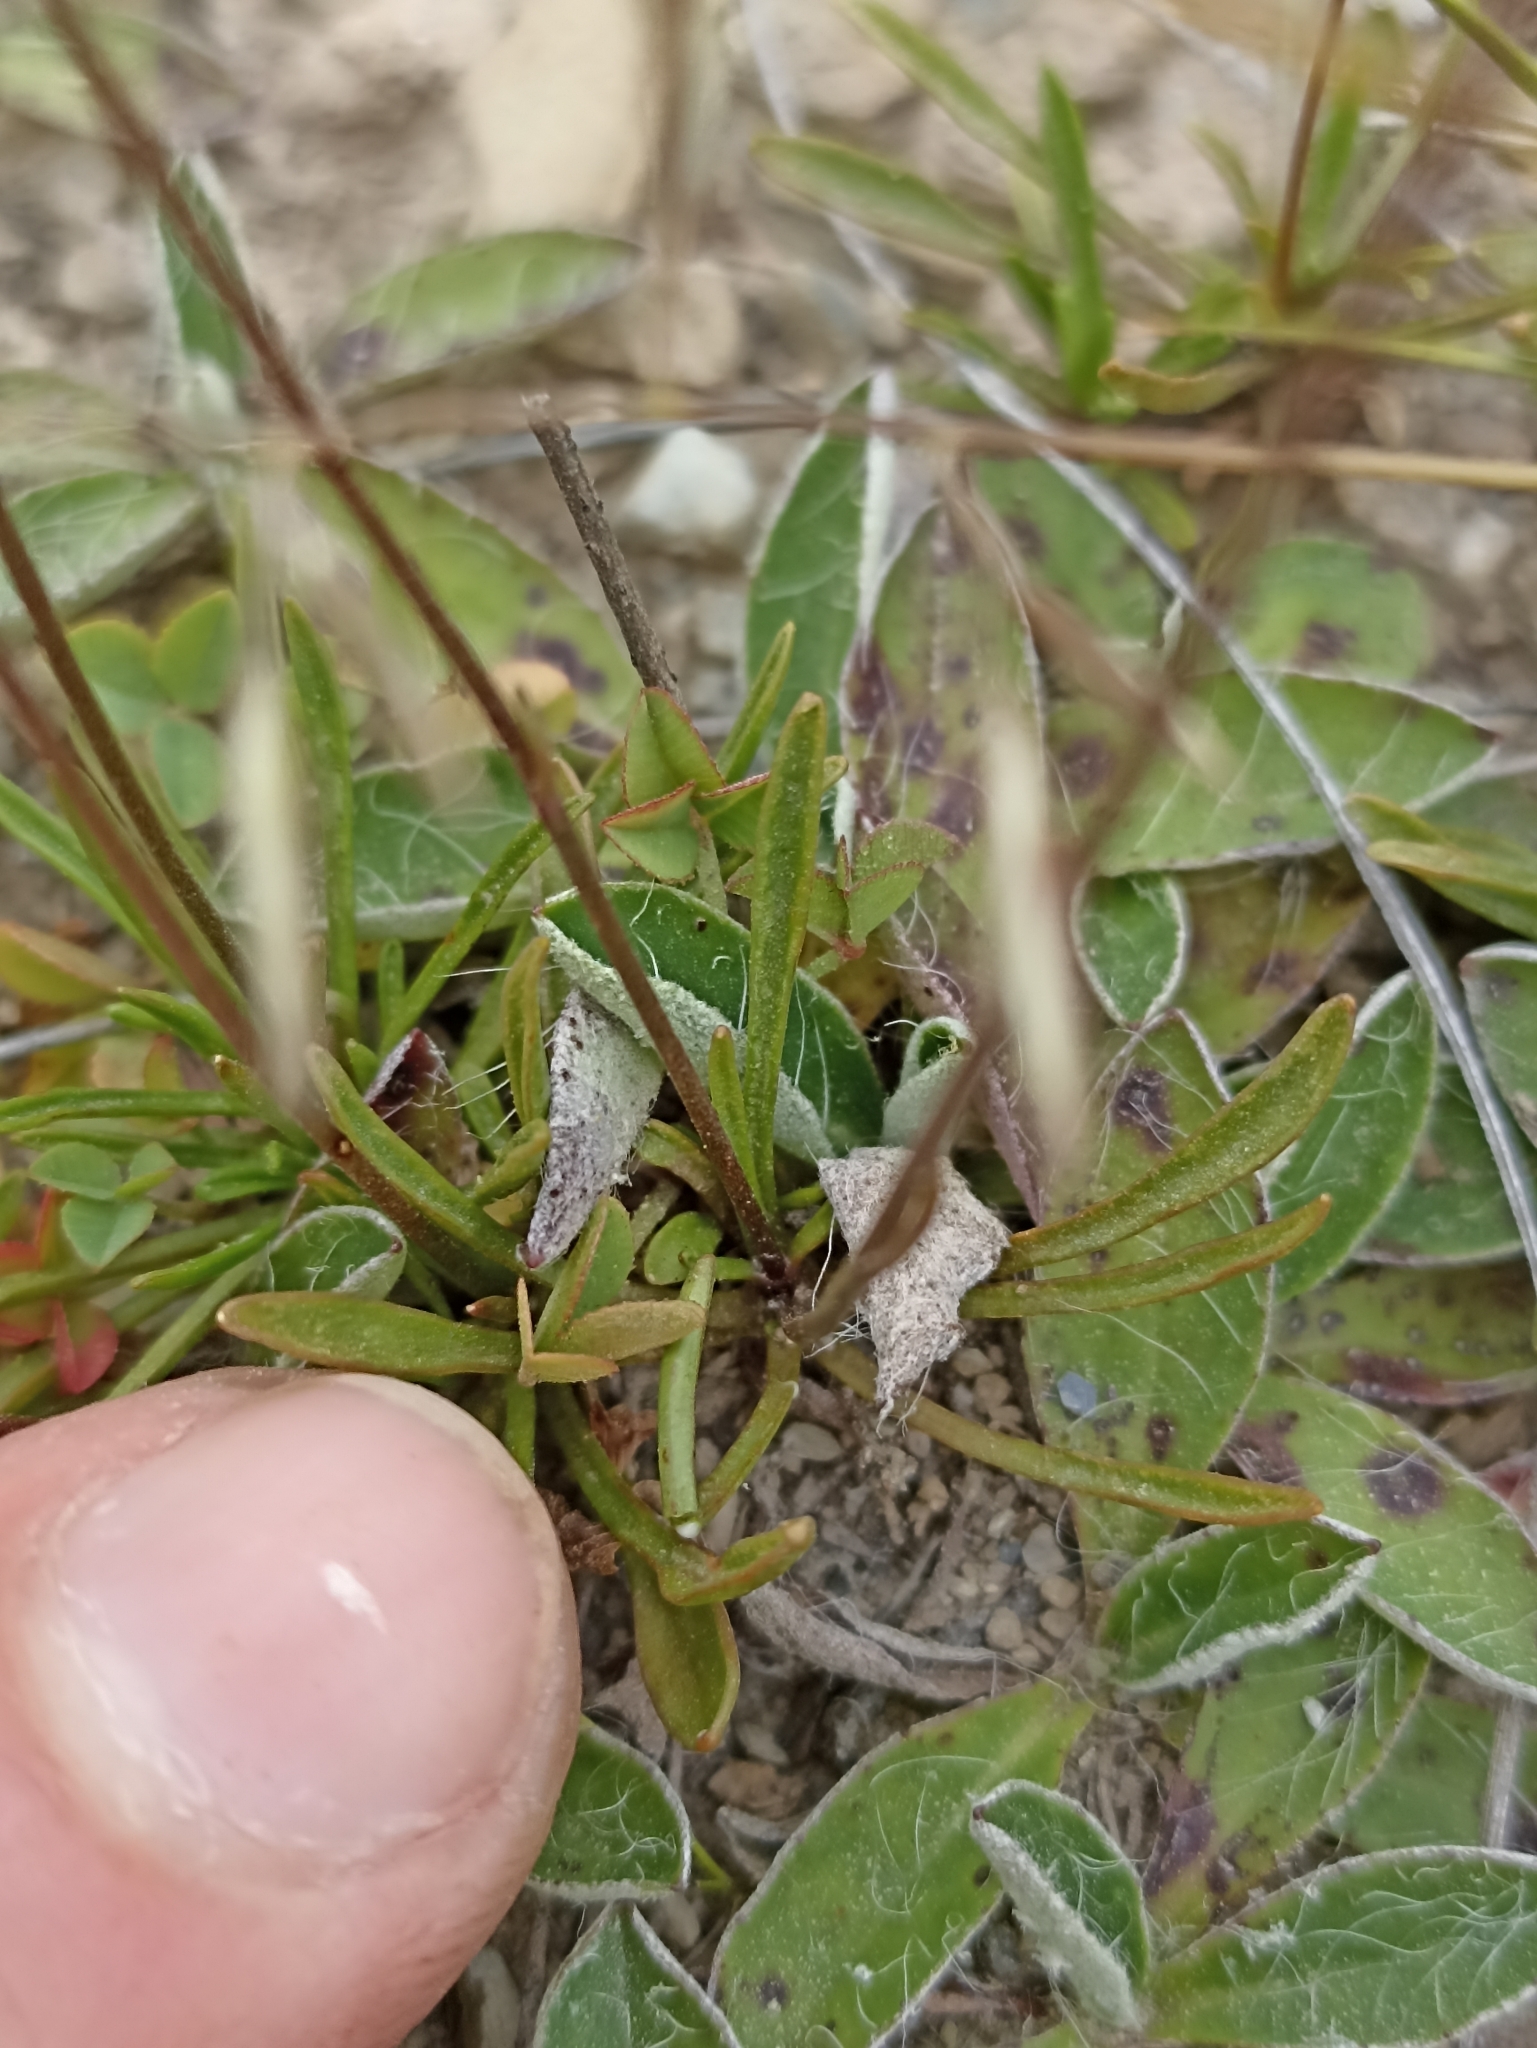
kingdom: Plantae
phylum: Tracheophyta
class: Magnoliopsida
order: Asterales
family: Campanulaceae
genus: Wahlenbergia
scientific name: Wahlenbergia albomarginata
